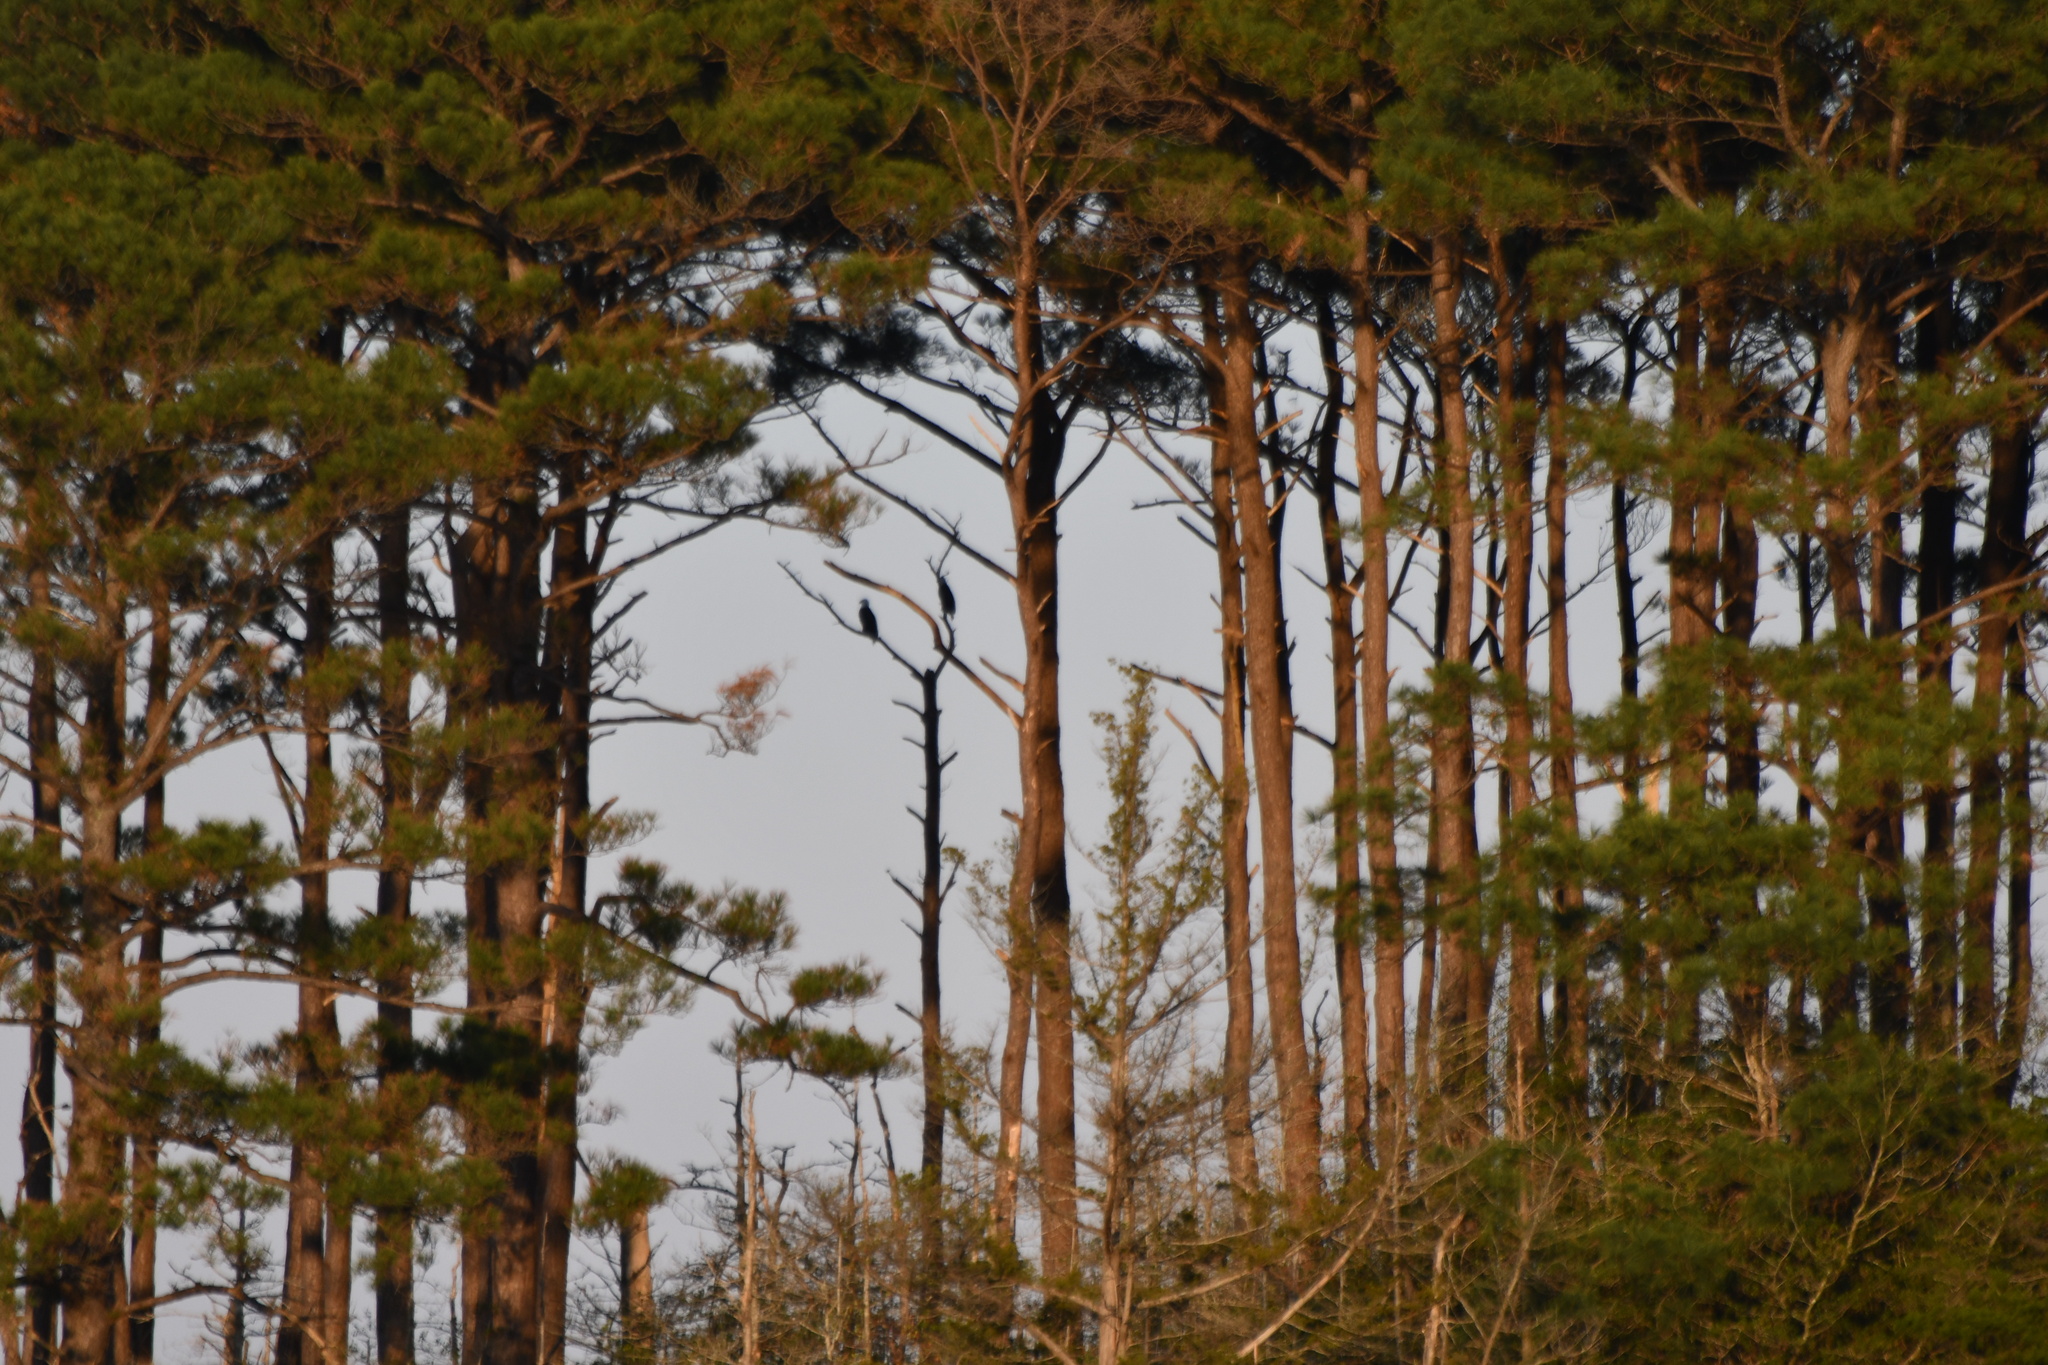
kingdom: Animalia
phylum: Chordata
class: Aves
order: Accipitriformes
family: Accipitridae
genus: Haliaeetus
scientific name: Haliaeetus leucocephalus
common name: Bald eagle
